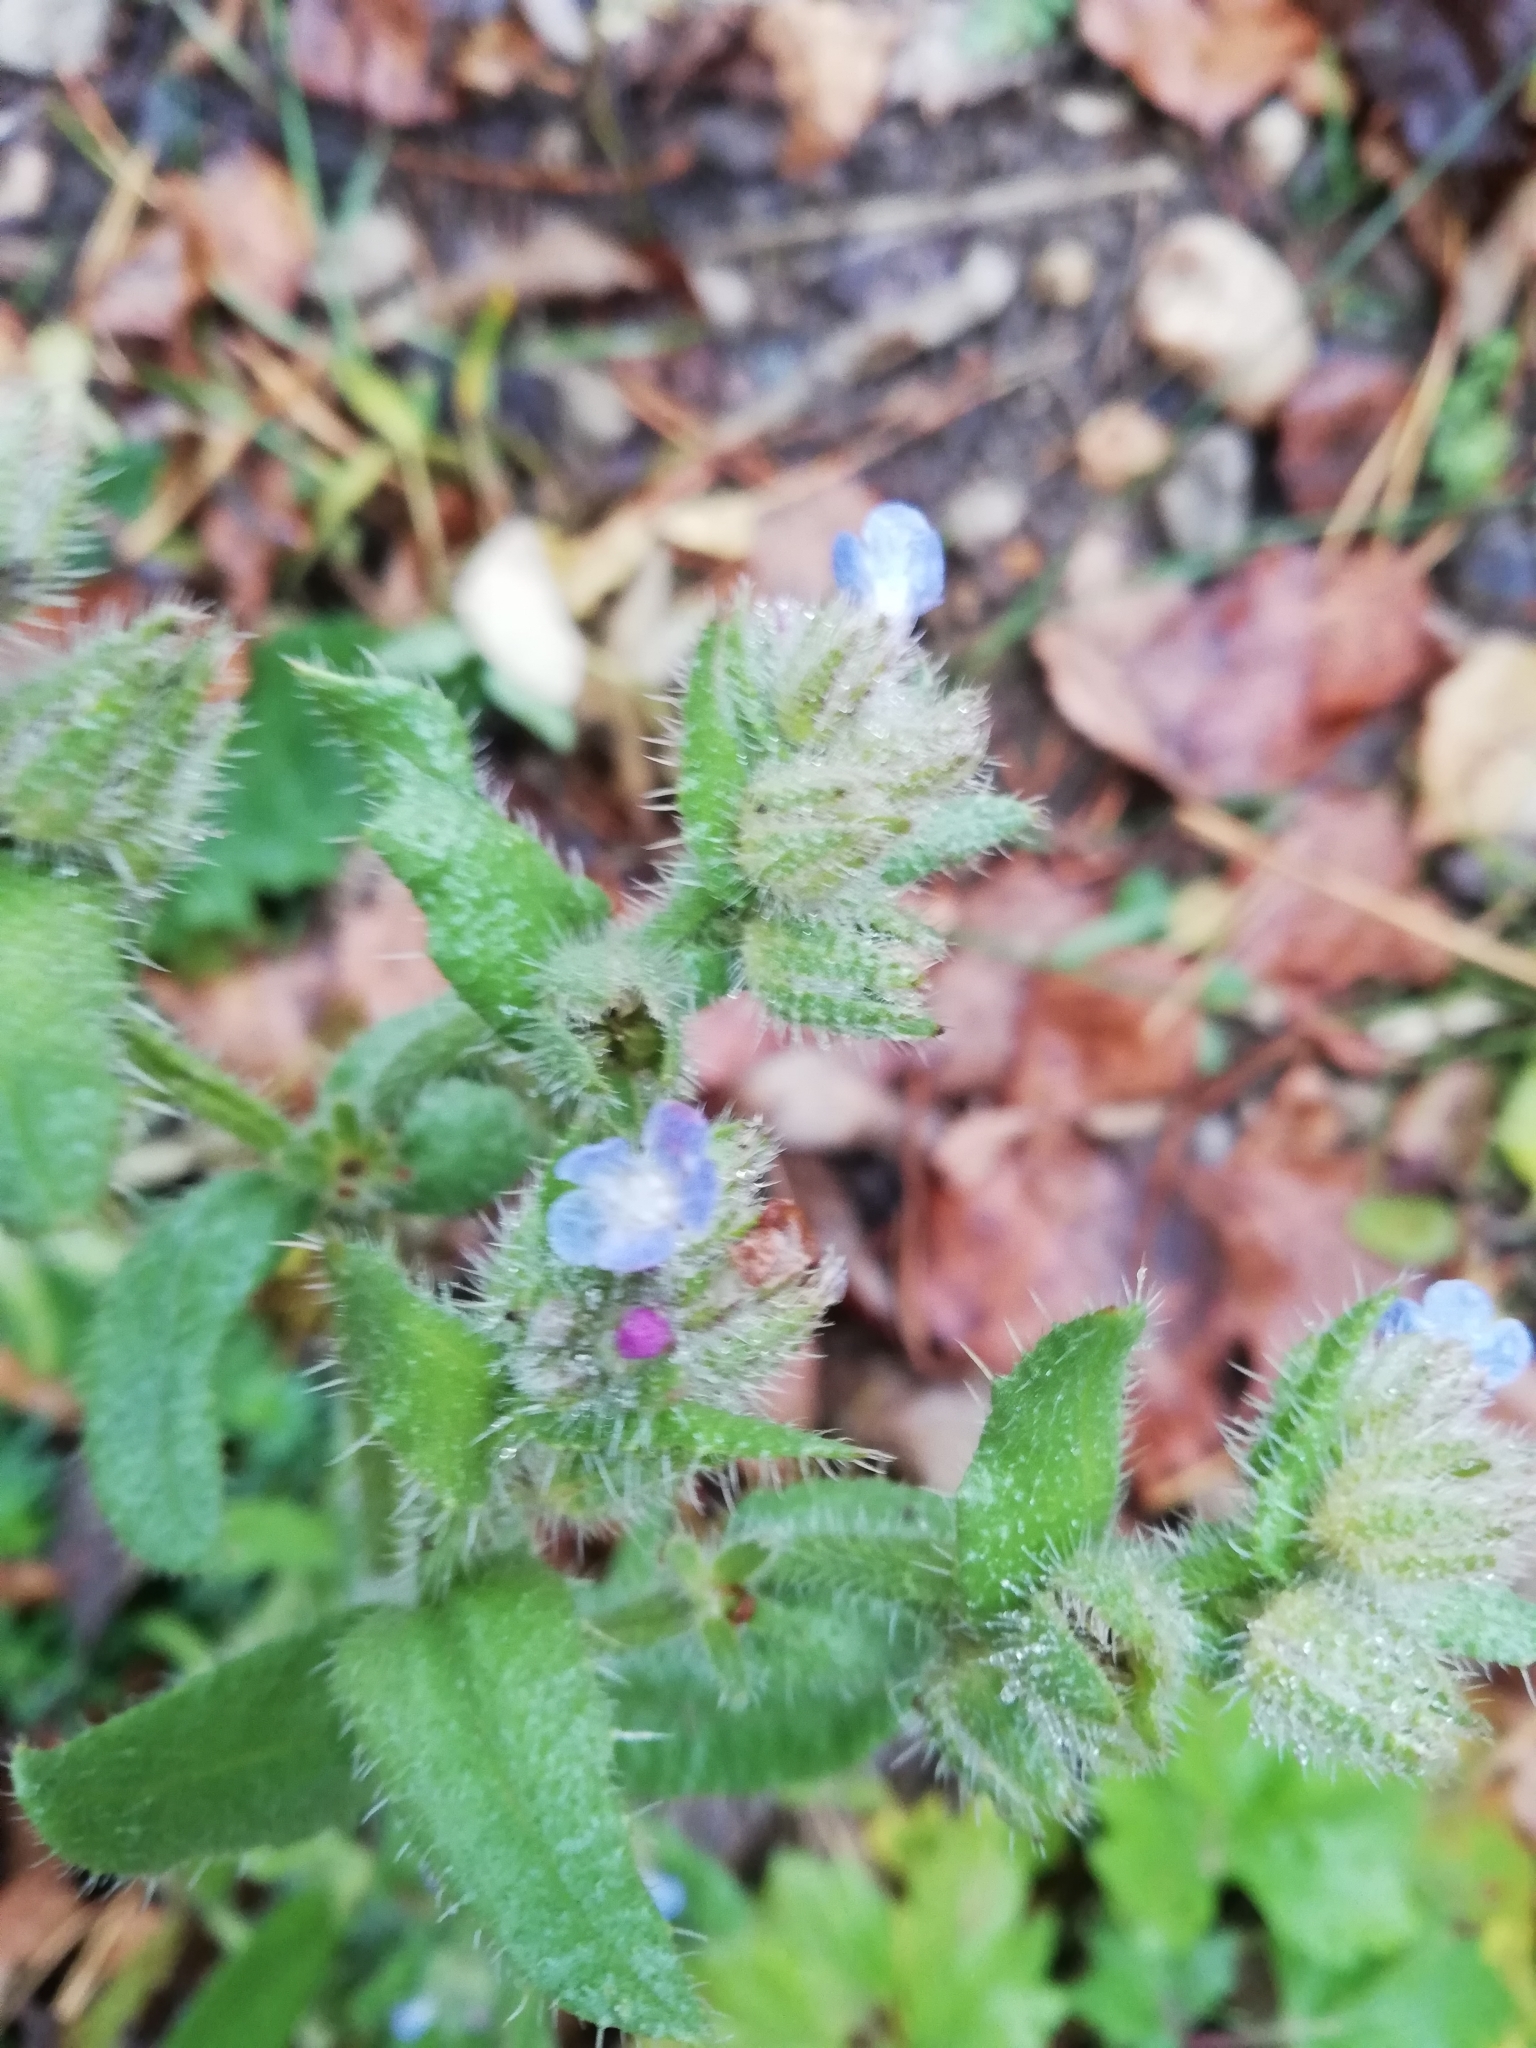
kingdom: Plantae
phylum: Tracheophyta
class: Magnoliopsida
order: Boraginales
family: Boraginaceae
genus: Lycopsis
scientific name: Lycopsis arvensis
